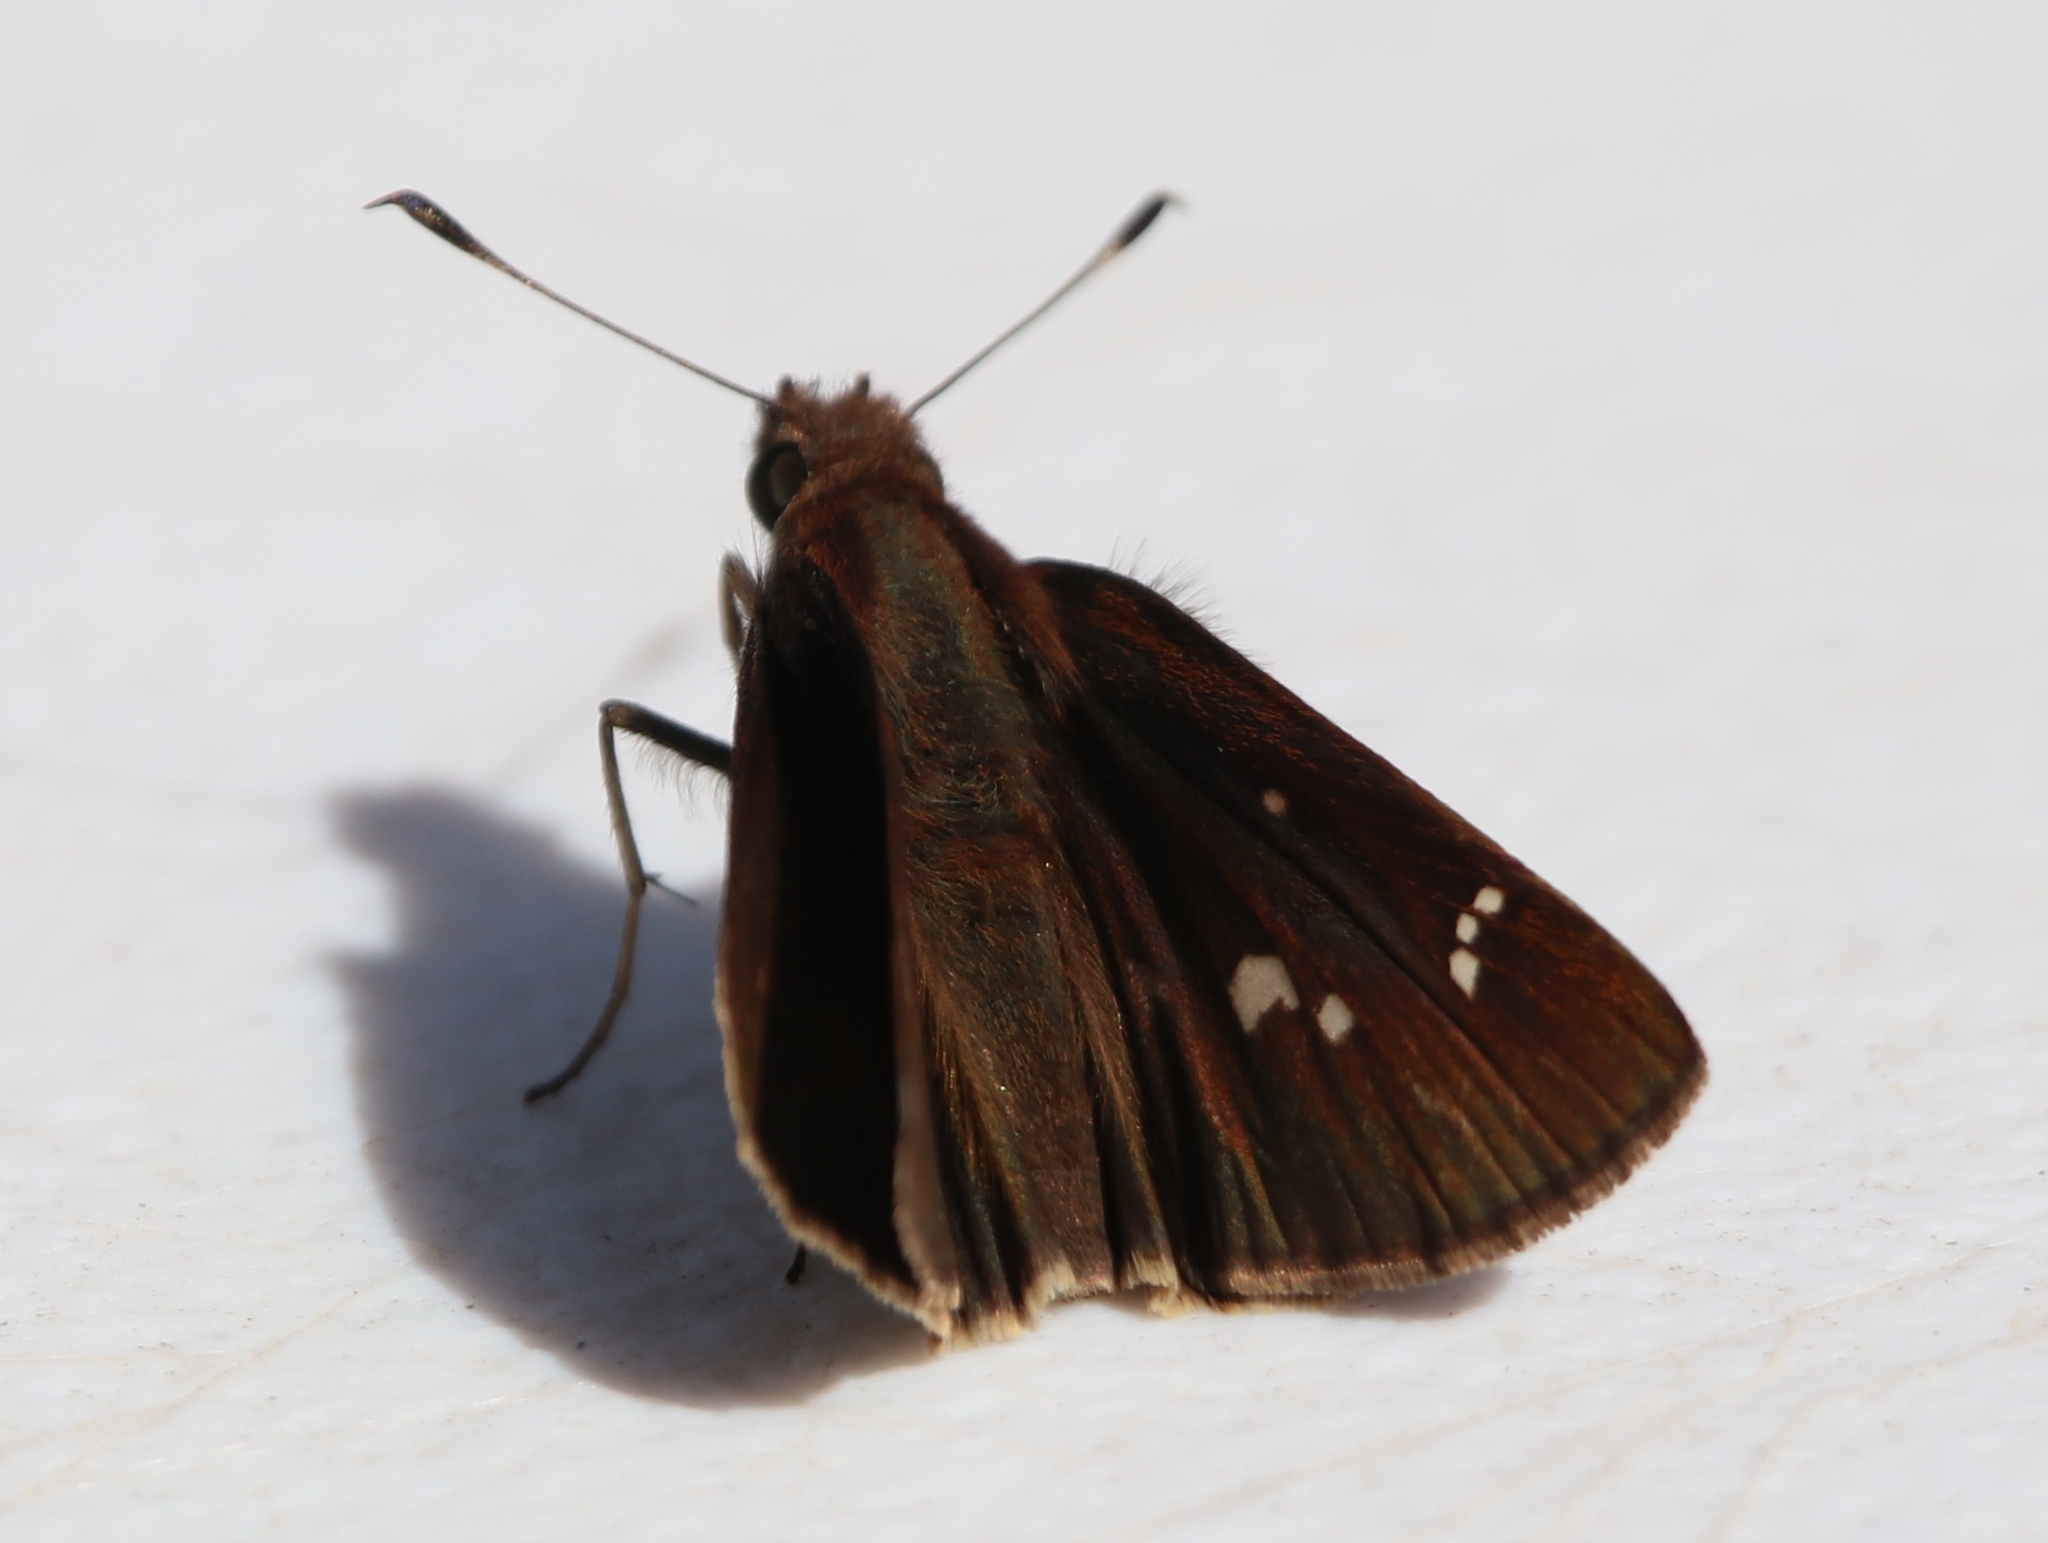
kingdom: Animalia
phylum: Arthropoda
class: Insecta
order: Lepidoptera
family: Hesperiidae
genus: Lerema
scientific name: Lerema accius
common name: Clouded skipper
